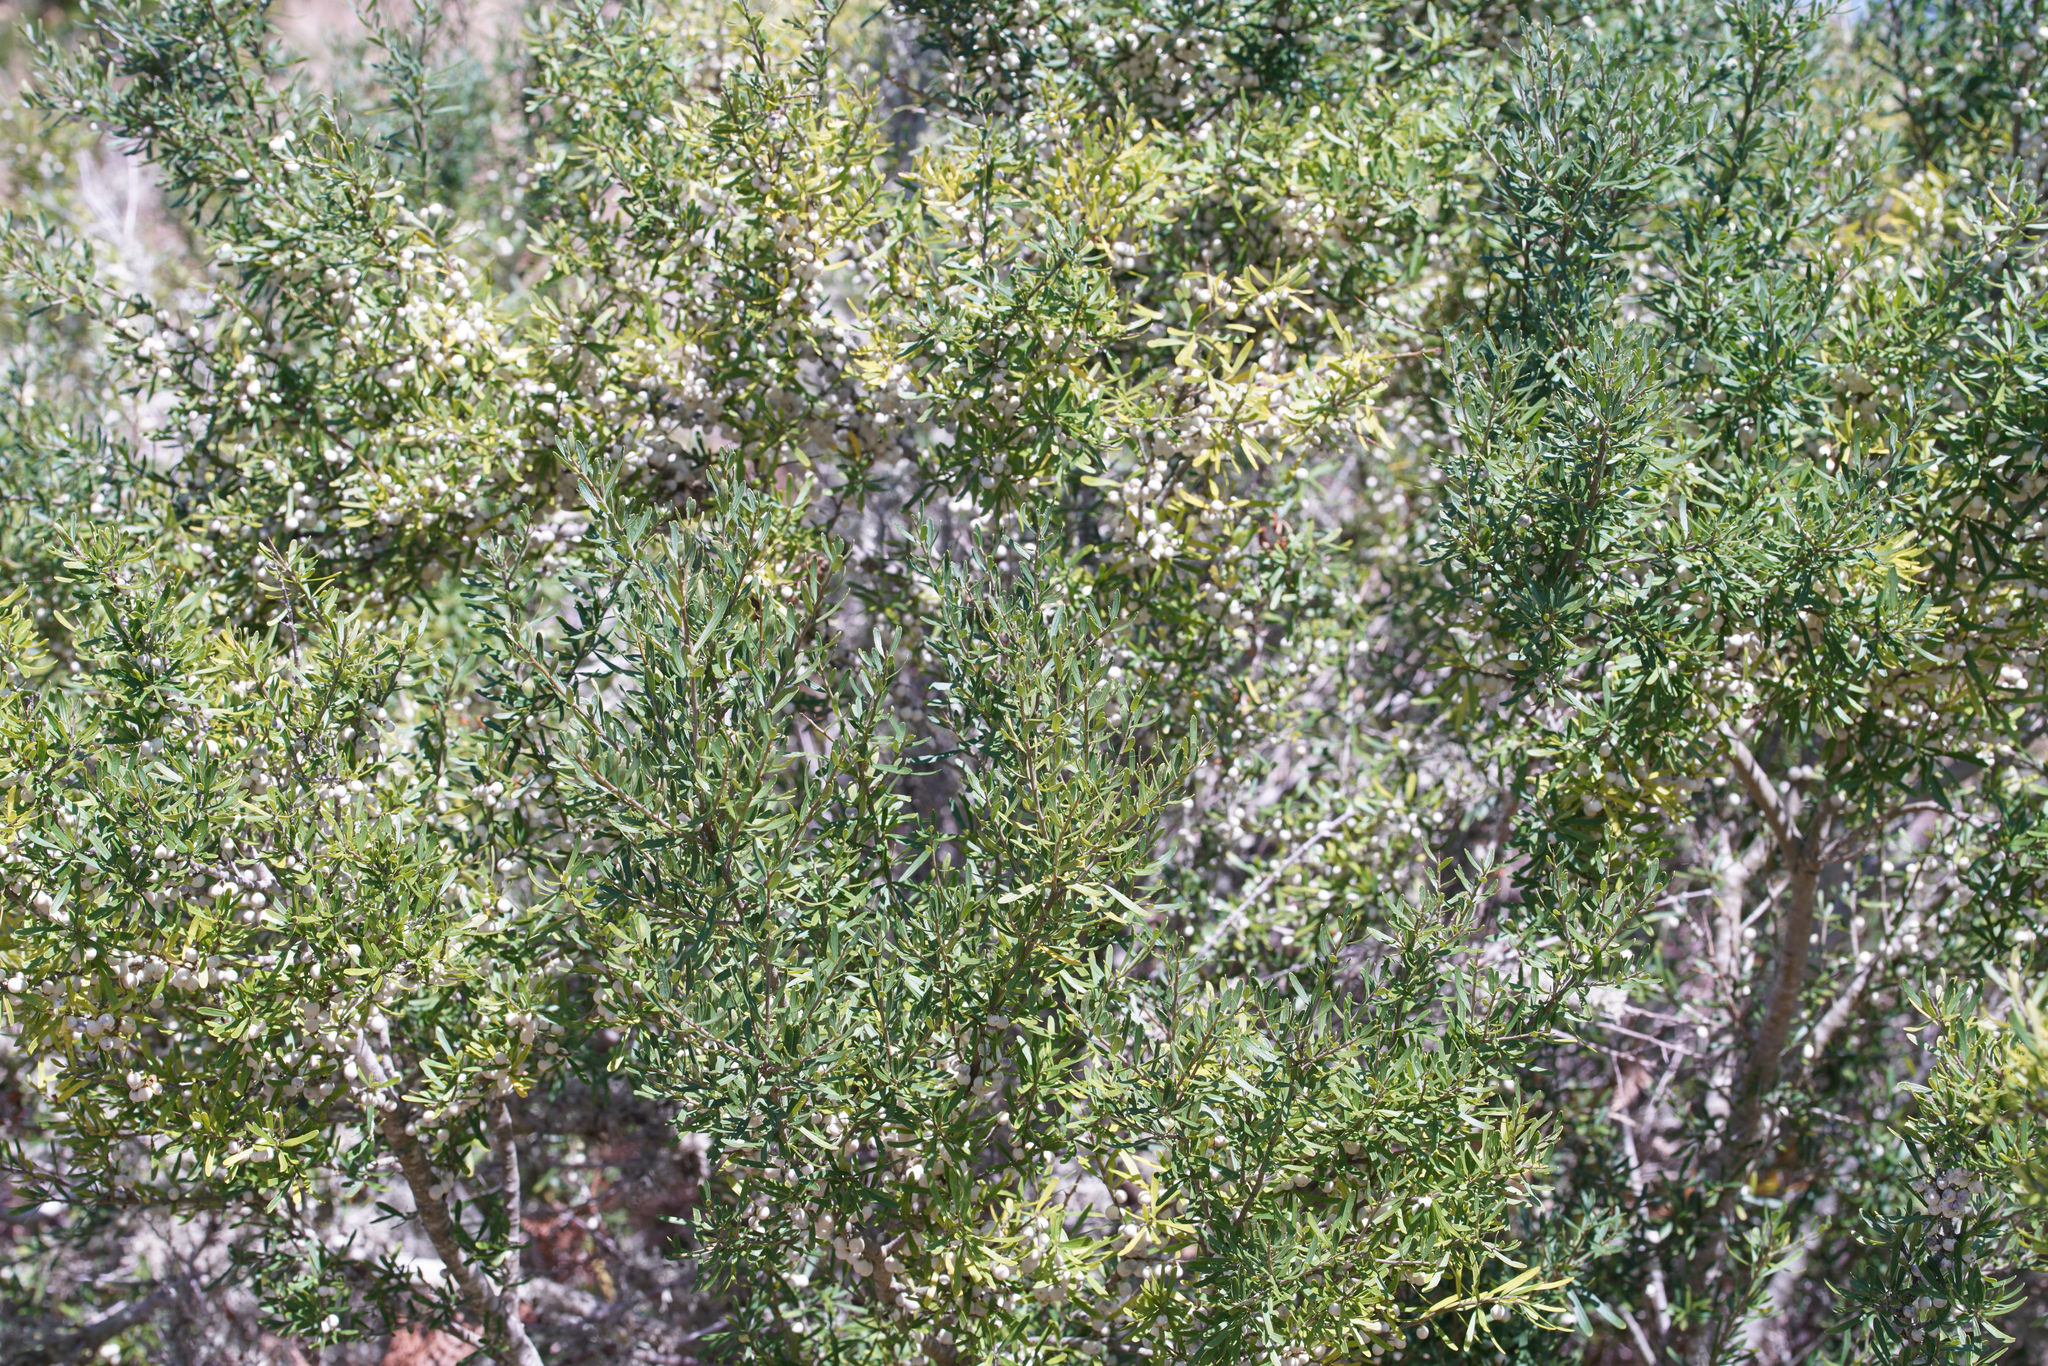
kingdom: Plantae
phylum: Tracheophyta
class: Magnoliopsida
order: Malpighiales
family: Violaceae
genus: Melicytus
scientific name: Melicytus dentatus
